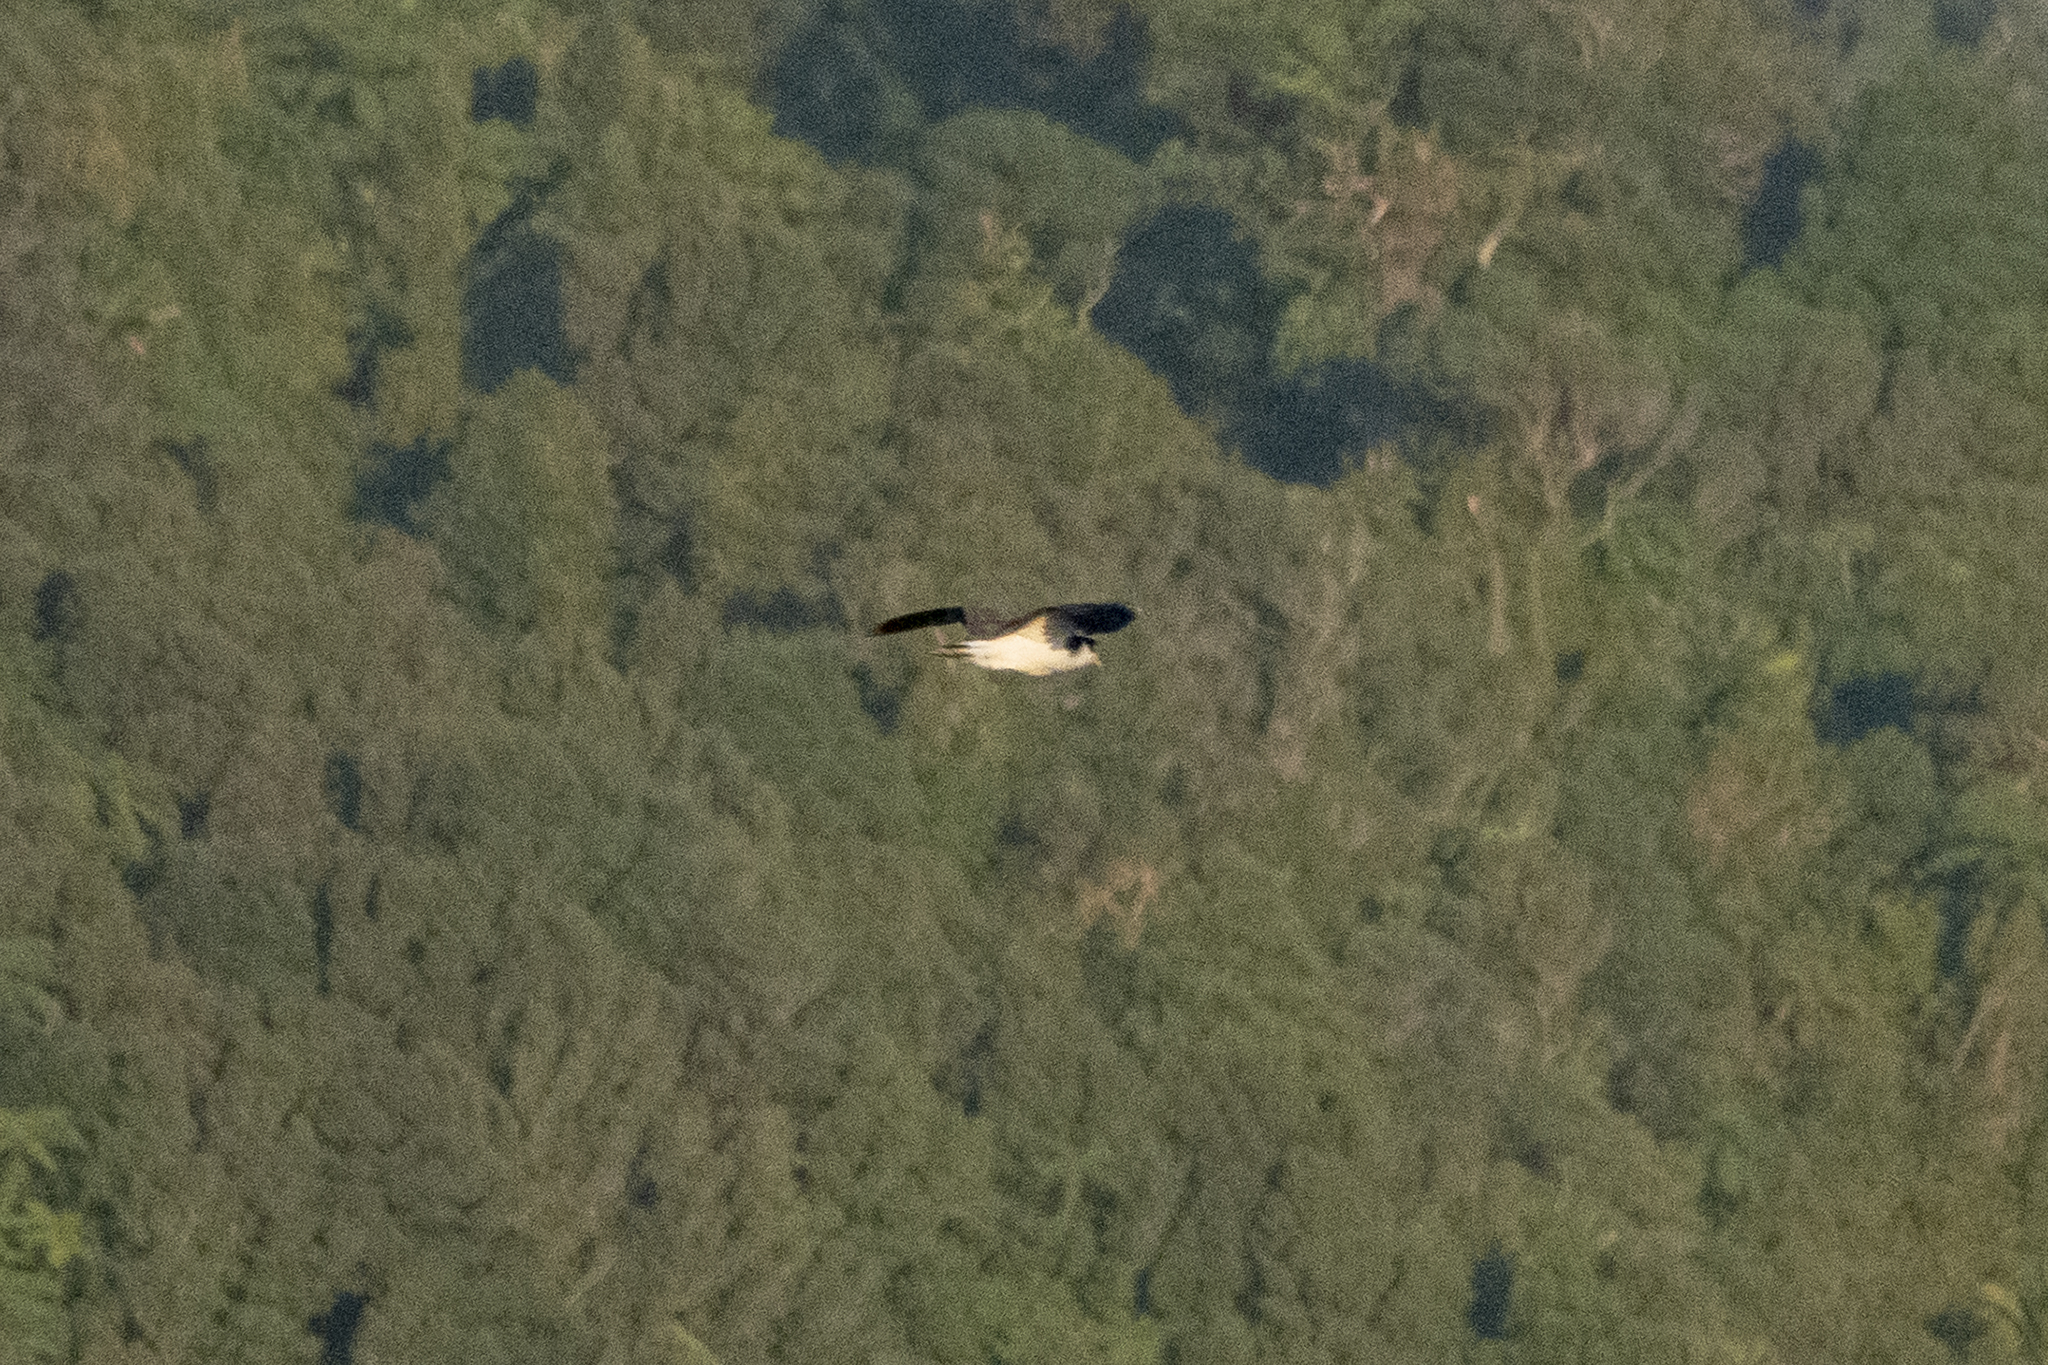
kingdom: Animalia
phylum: Chordata
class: Aves
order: Charadriiformes
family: Charadriidae
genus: Vanellus
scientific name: Vanellus miles
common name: Masked lapwing
